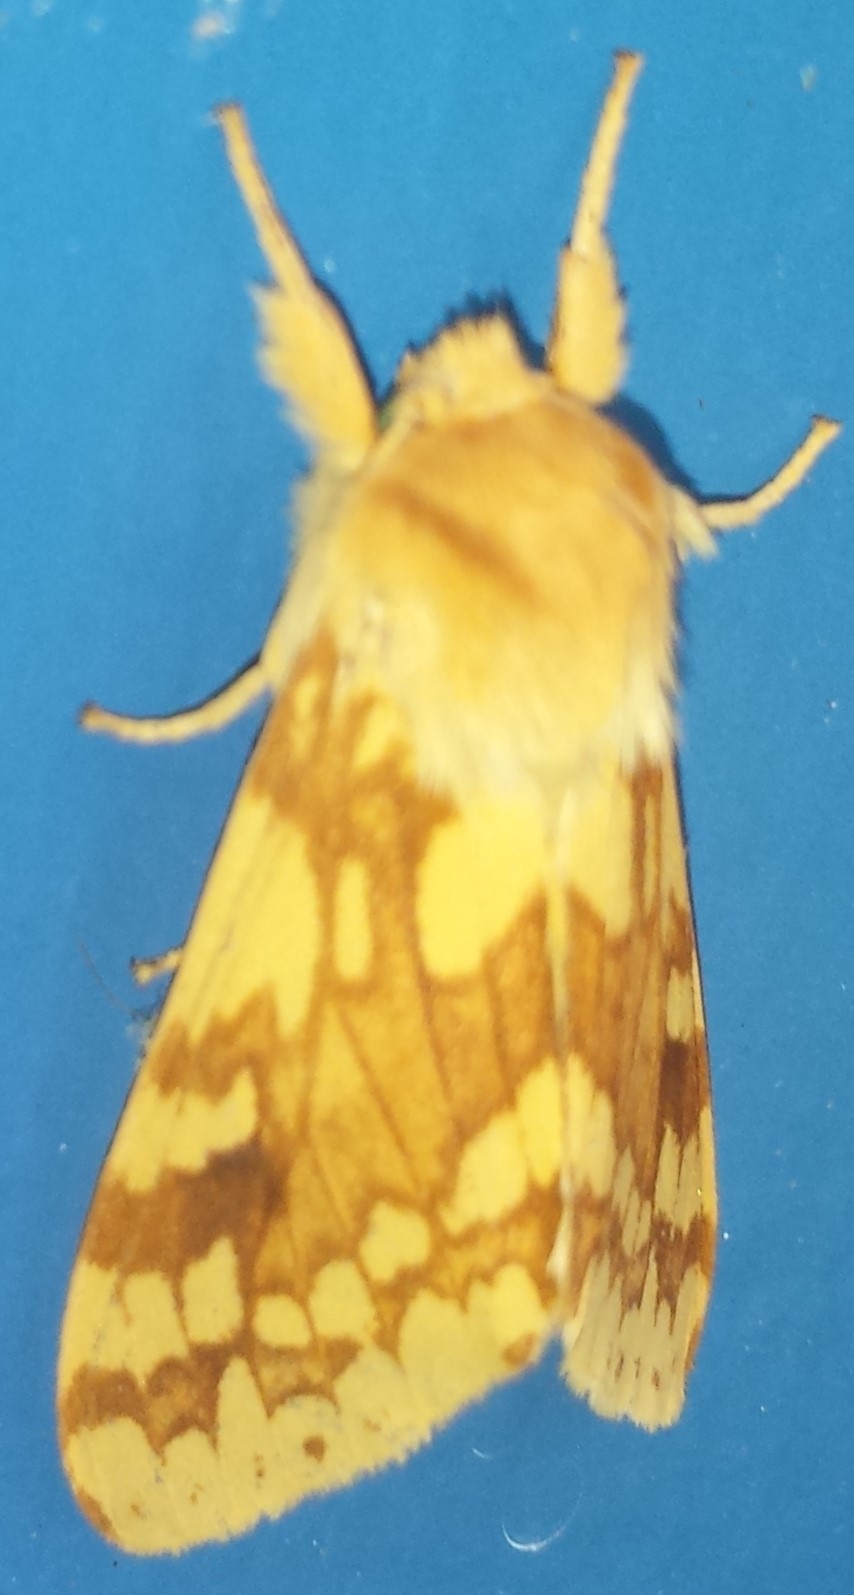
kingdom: Animalia
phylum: Arthropoda
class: Insecta
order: Lepidoptera
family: Erebidae
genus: Lophocampa
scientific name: Lophocampa maculata
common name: Spotted tussock moth
